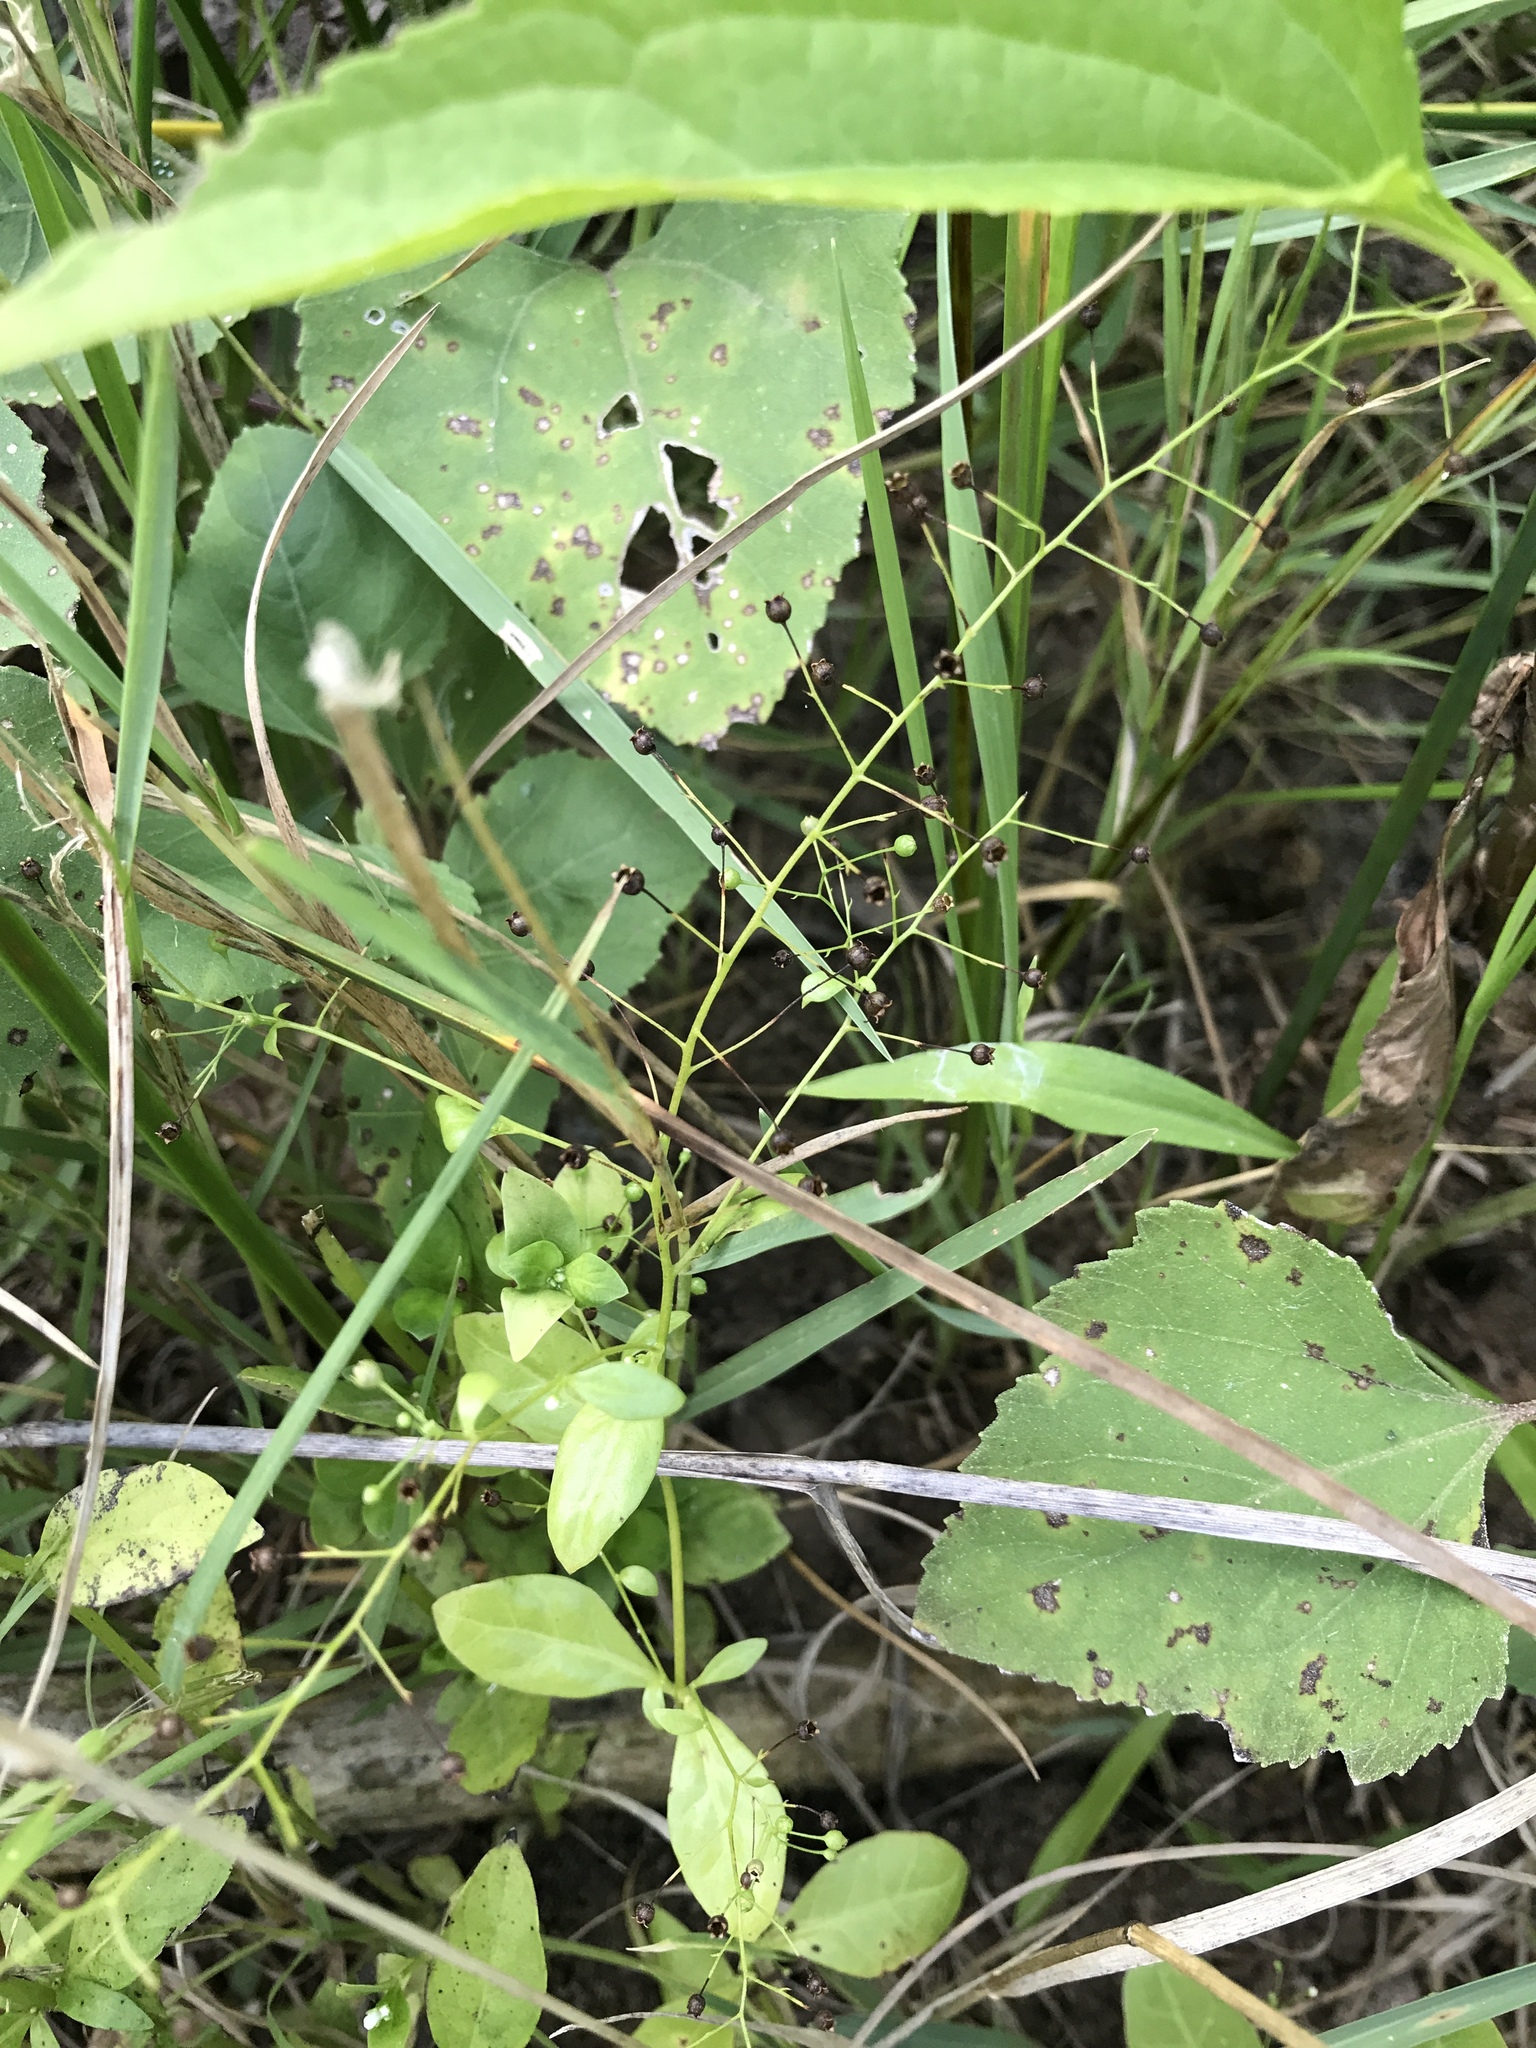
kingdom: Plantae
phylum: Tracheophyta
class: Magnoliopsida
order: Ericales
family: Primulaceae
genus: Samolus
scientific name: Samolus parviflorus
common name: False water pimpernel
